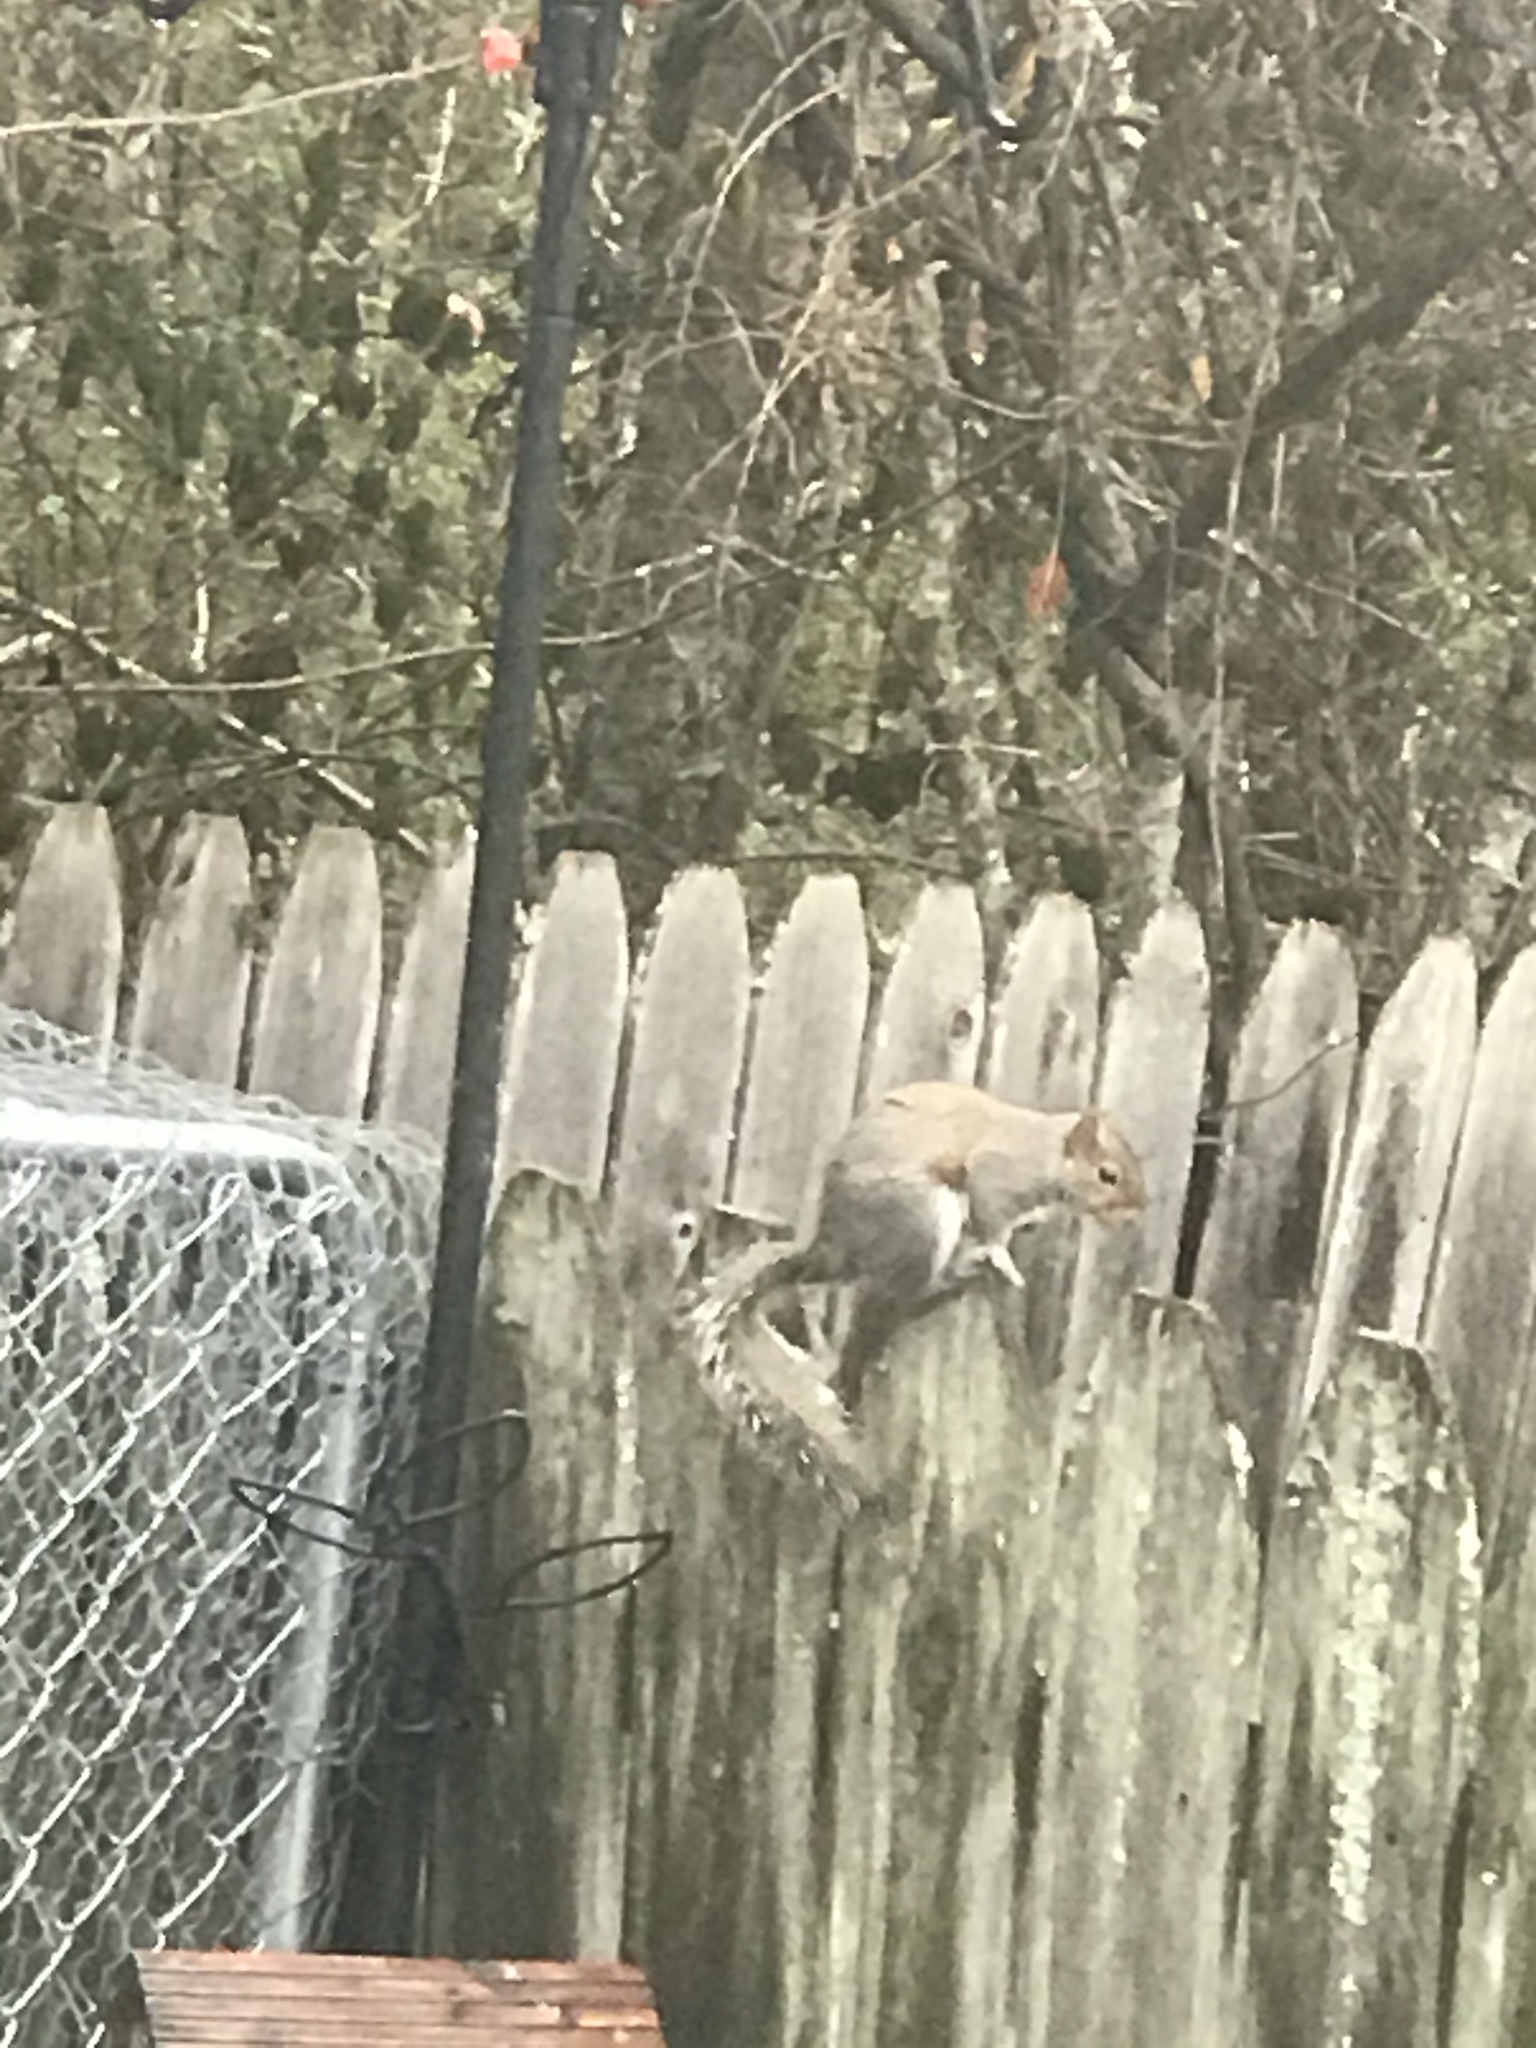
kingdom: Animalia
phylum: Chordata
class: Mammalia
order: Rodentia
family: Sciuridae
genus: Sciurus
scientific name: Sciurus carolinensis
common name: Eastern gray squirrel
